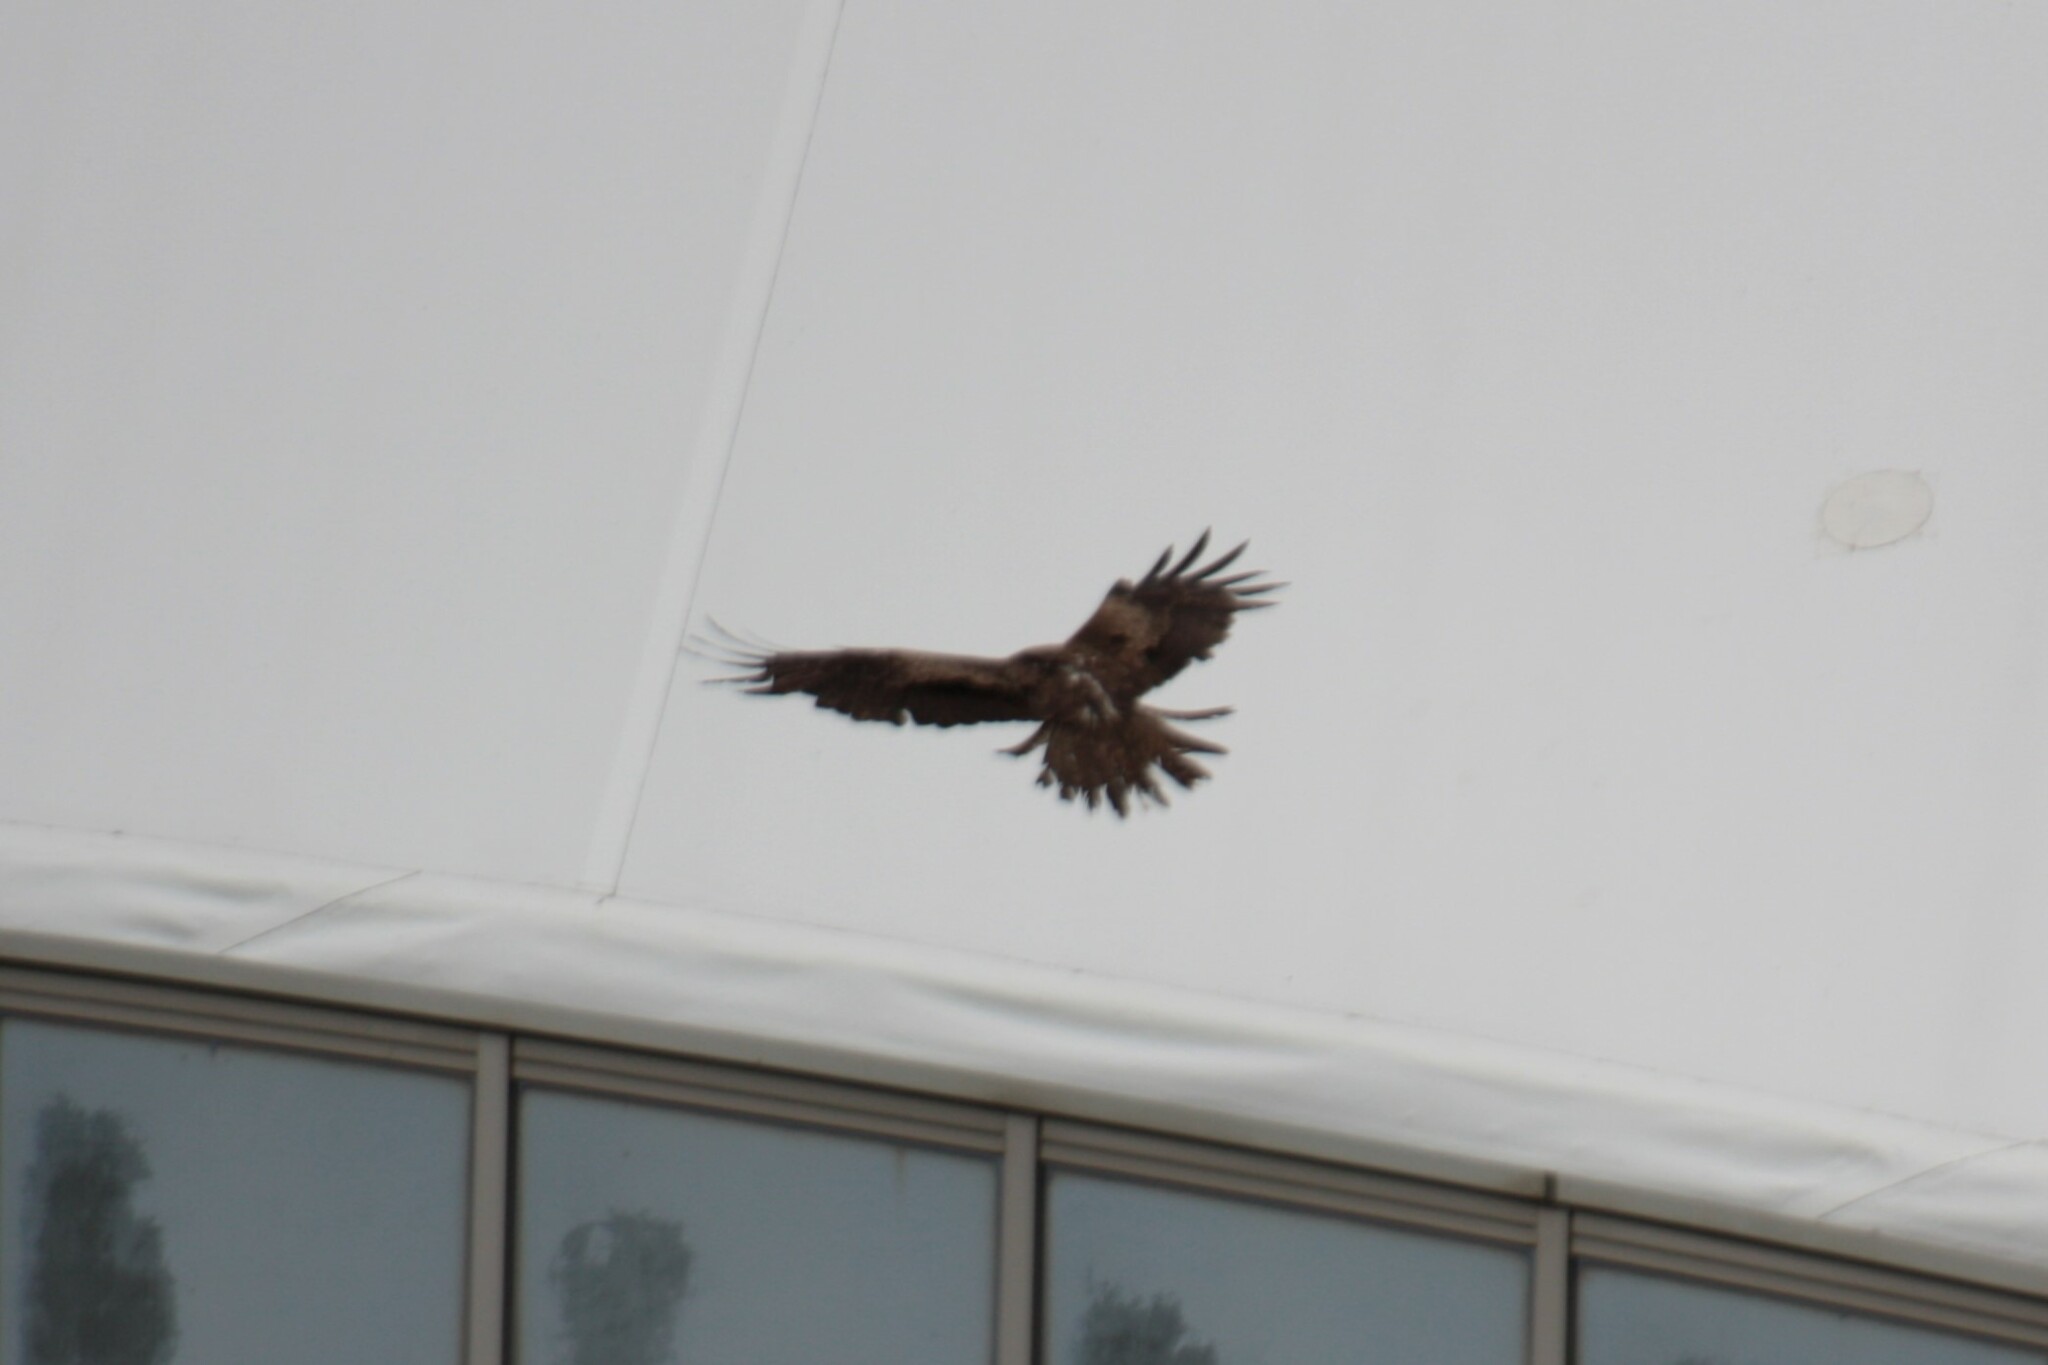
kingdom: Animalia
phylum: Chordata
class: Aves
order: Accipitriformes
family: Accipitridae
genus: Milvus
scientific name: Milvus migrans
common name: Black kite
